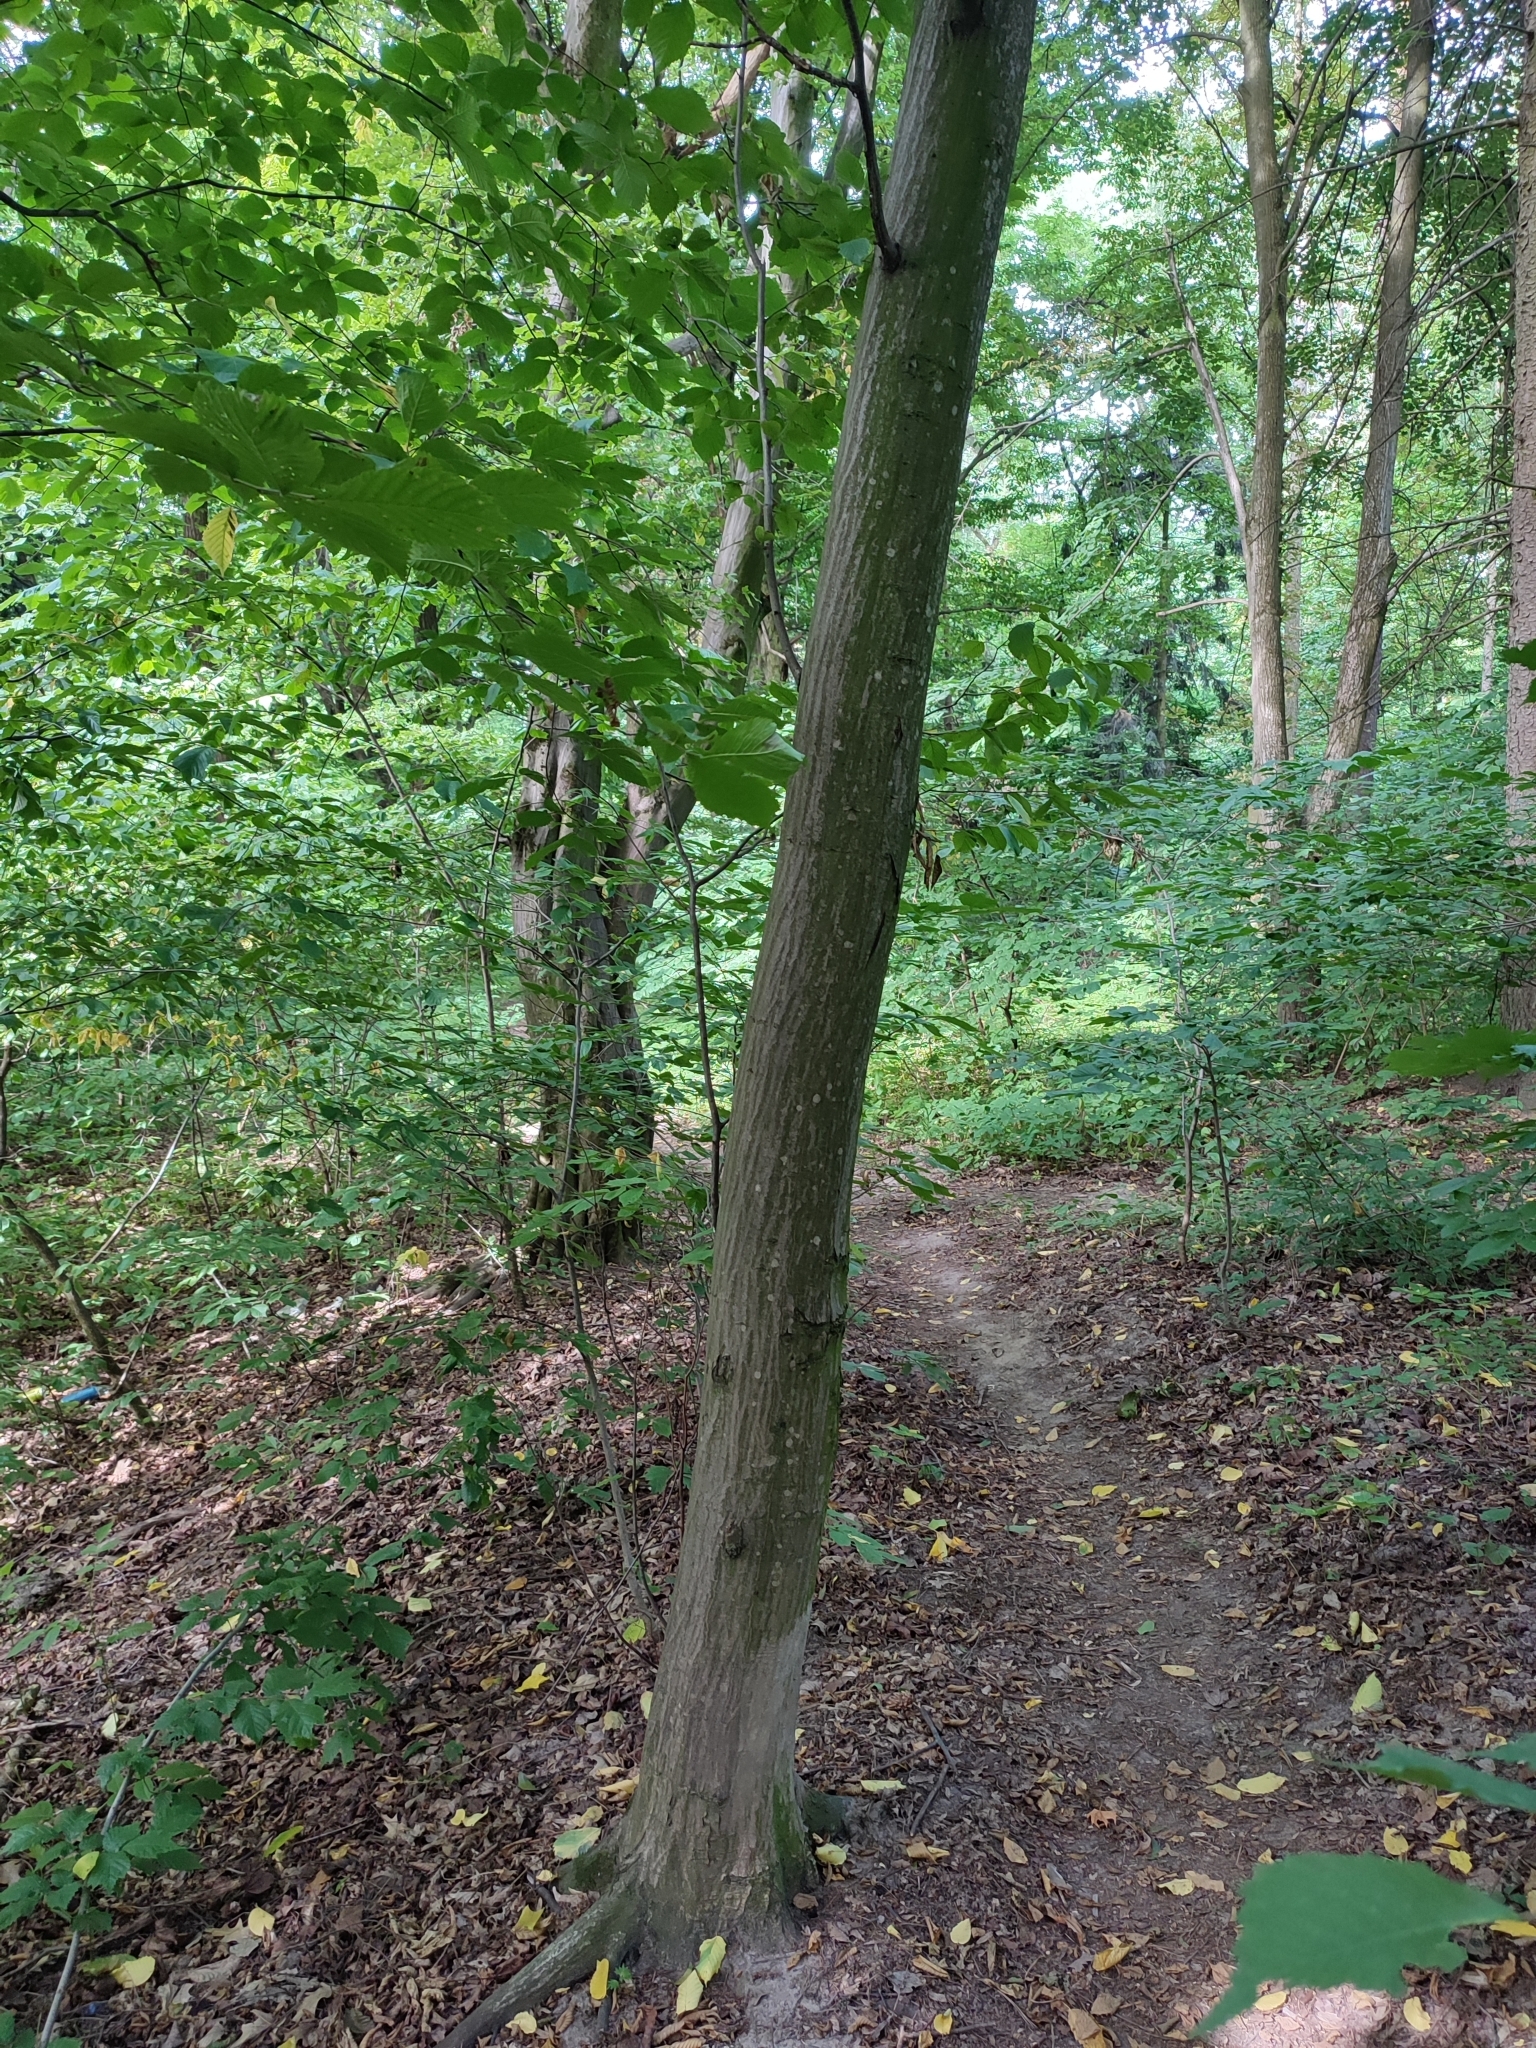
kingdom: Plantae
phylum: Tracheophyta
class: Magnoliopsida
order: Fagales
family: Betulaceae
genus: Carpinus
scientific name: Carpinus betulus
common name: Hornbeam
